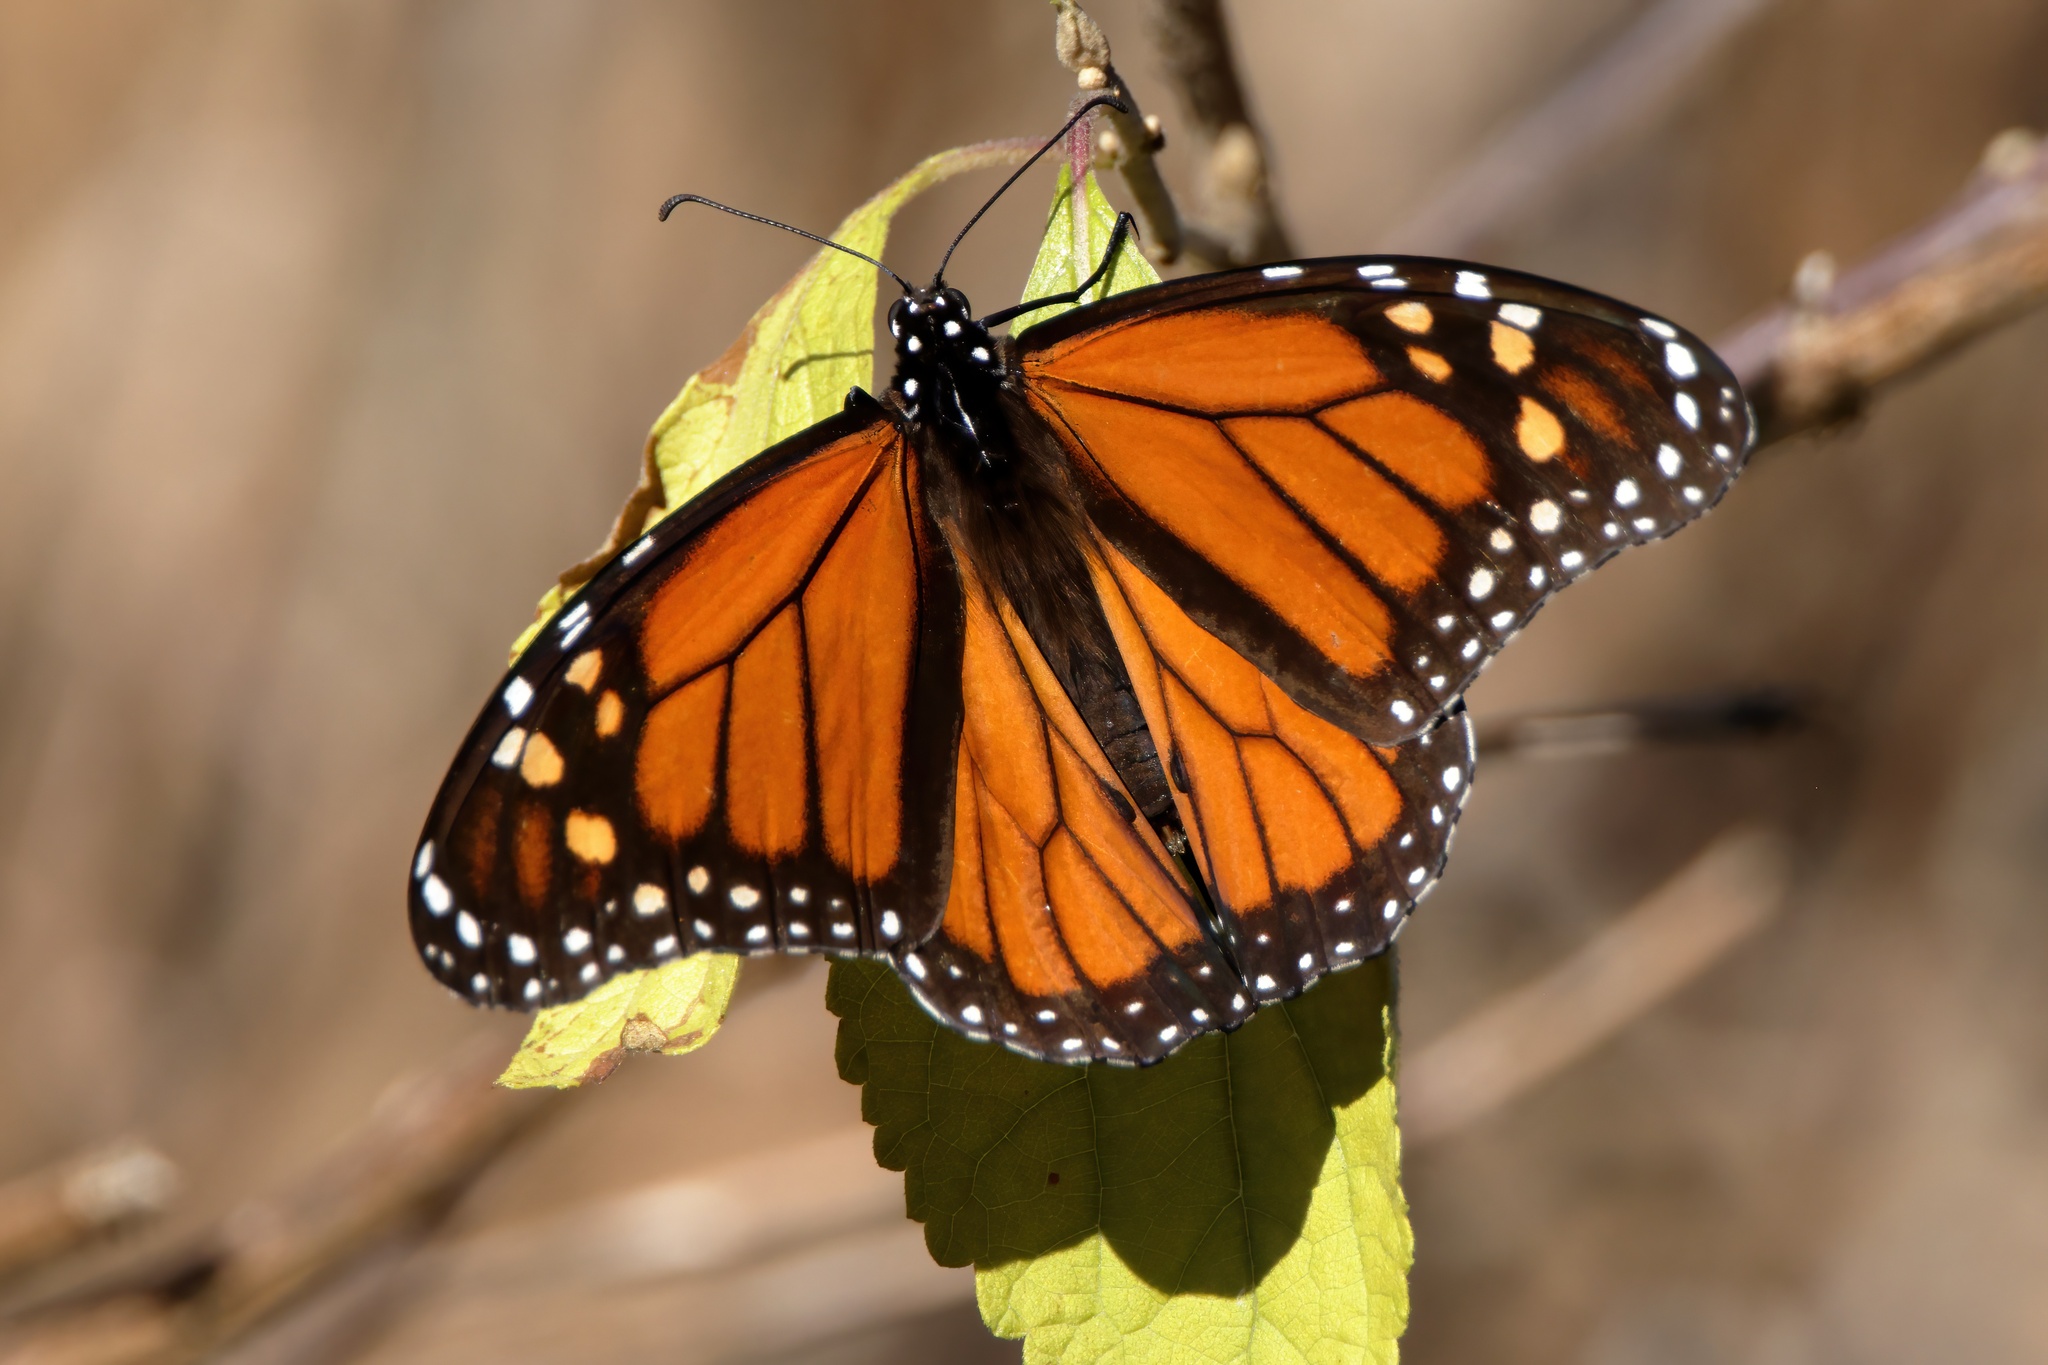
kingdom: Animalia
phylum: Arthropoda
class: Insecta
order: Lepidoptera
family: Nymphalidae
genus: Danaus
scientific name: Danaus plexippus
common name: Monarch
